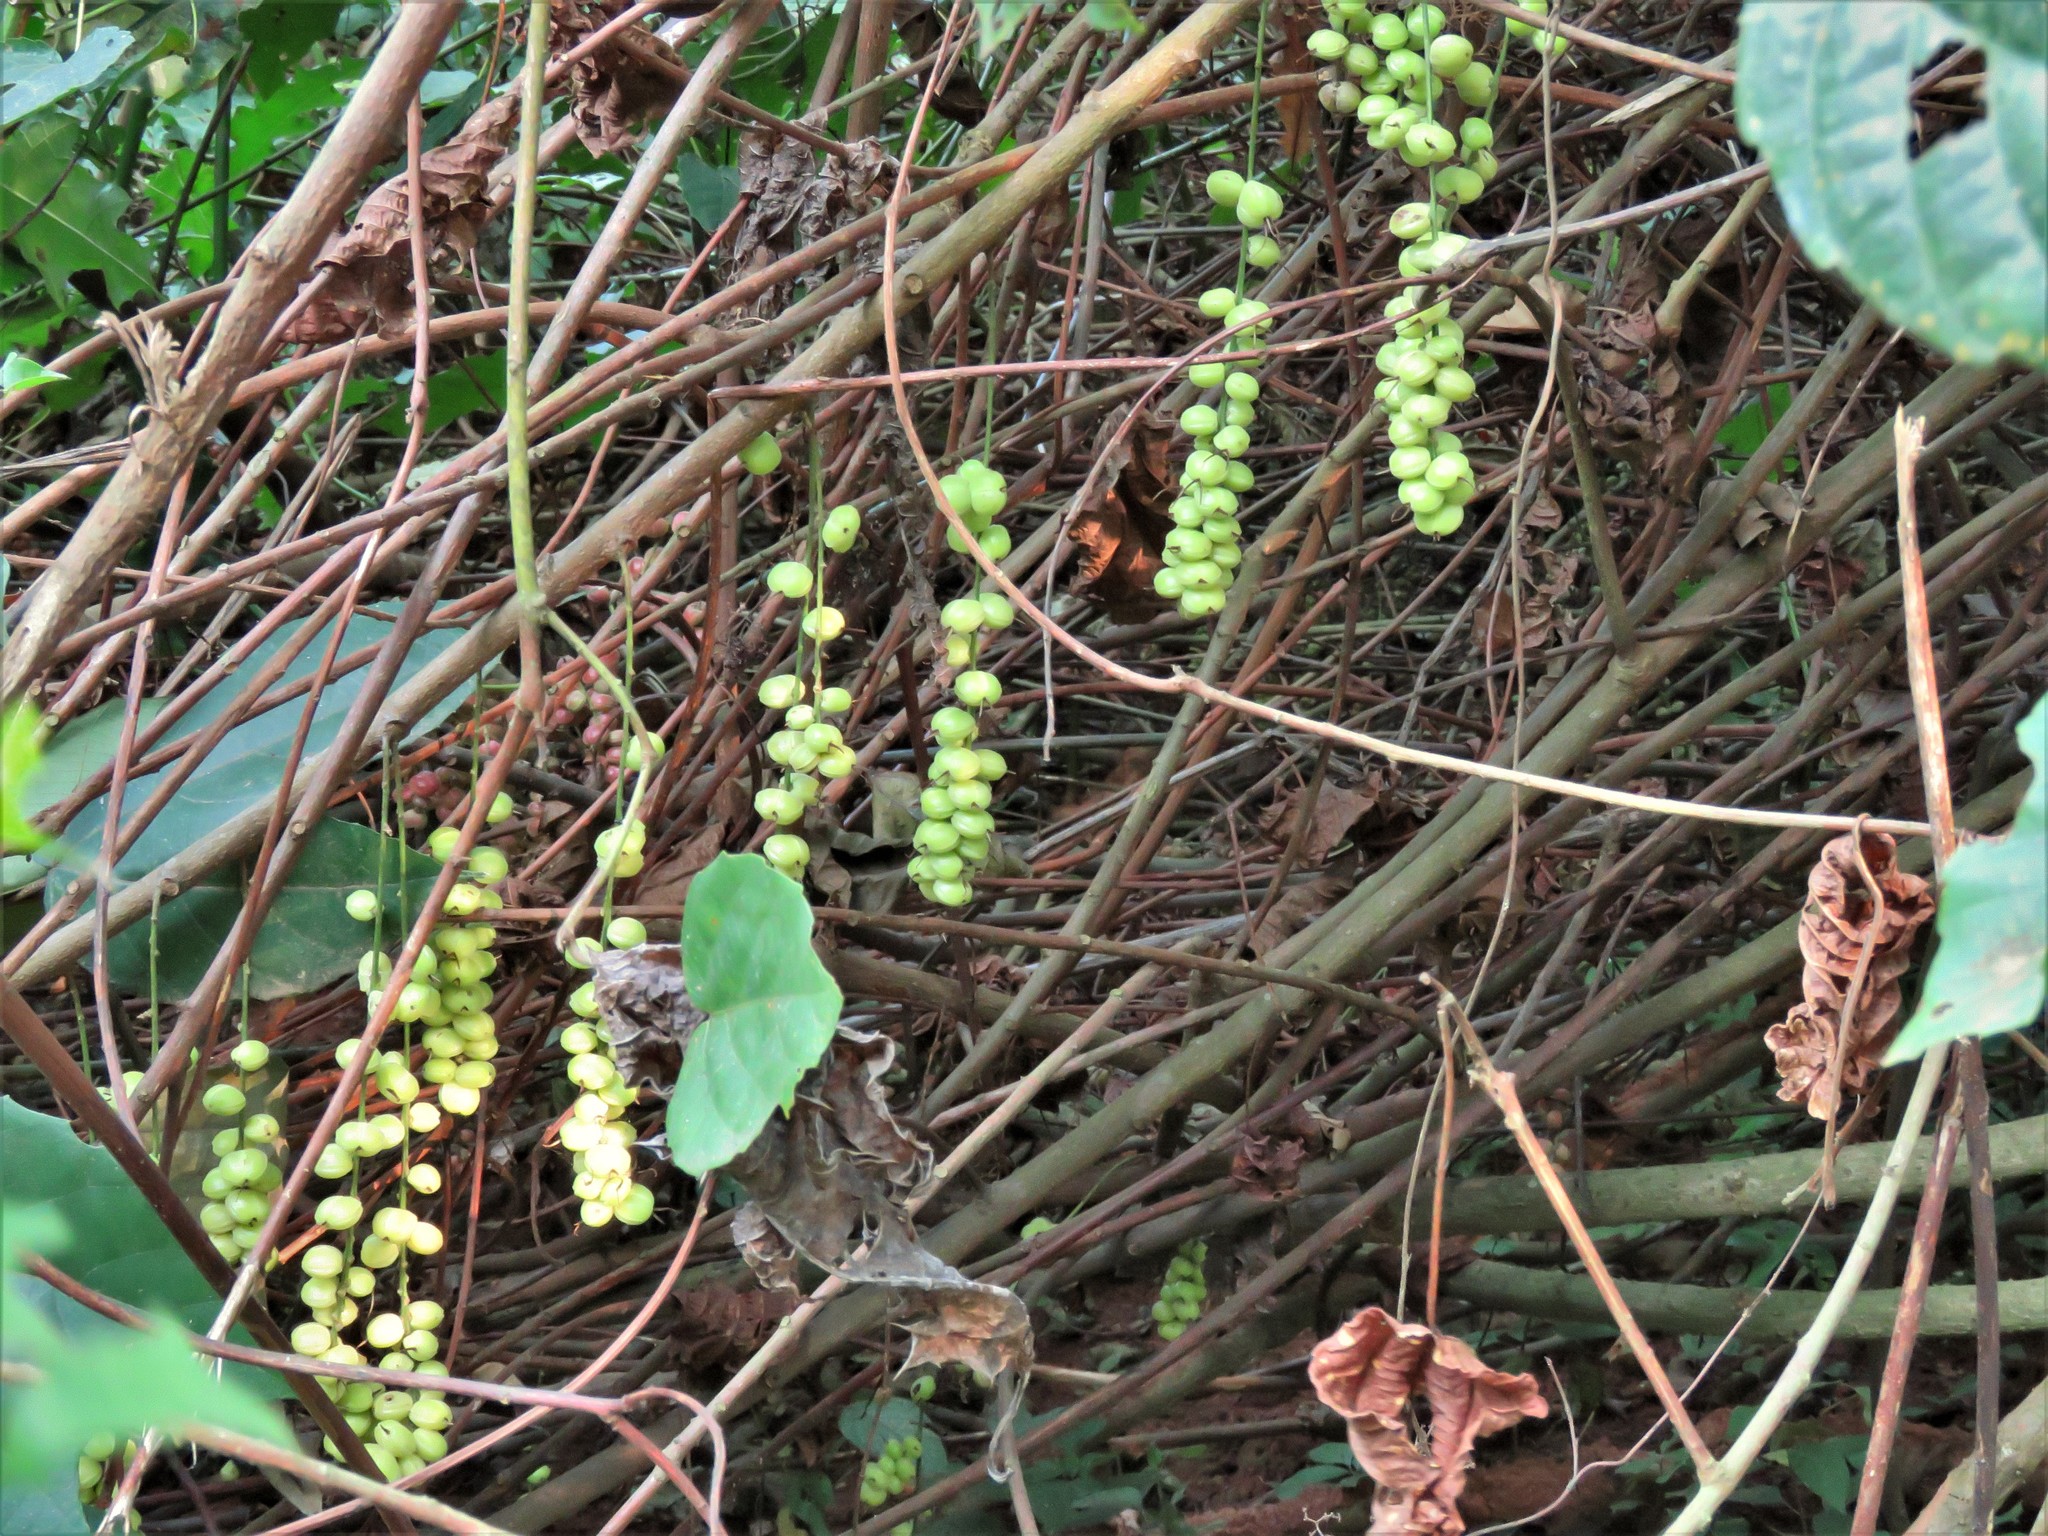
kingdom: Plantae
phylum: Tracheophyta
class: Magnoliopsida
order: Malpighiales
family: Euphorbiaceae
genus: Alchornea
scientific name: Alchornea cordifolia
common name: Christmasbush
